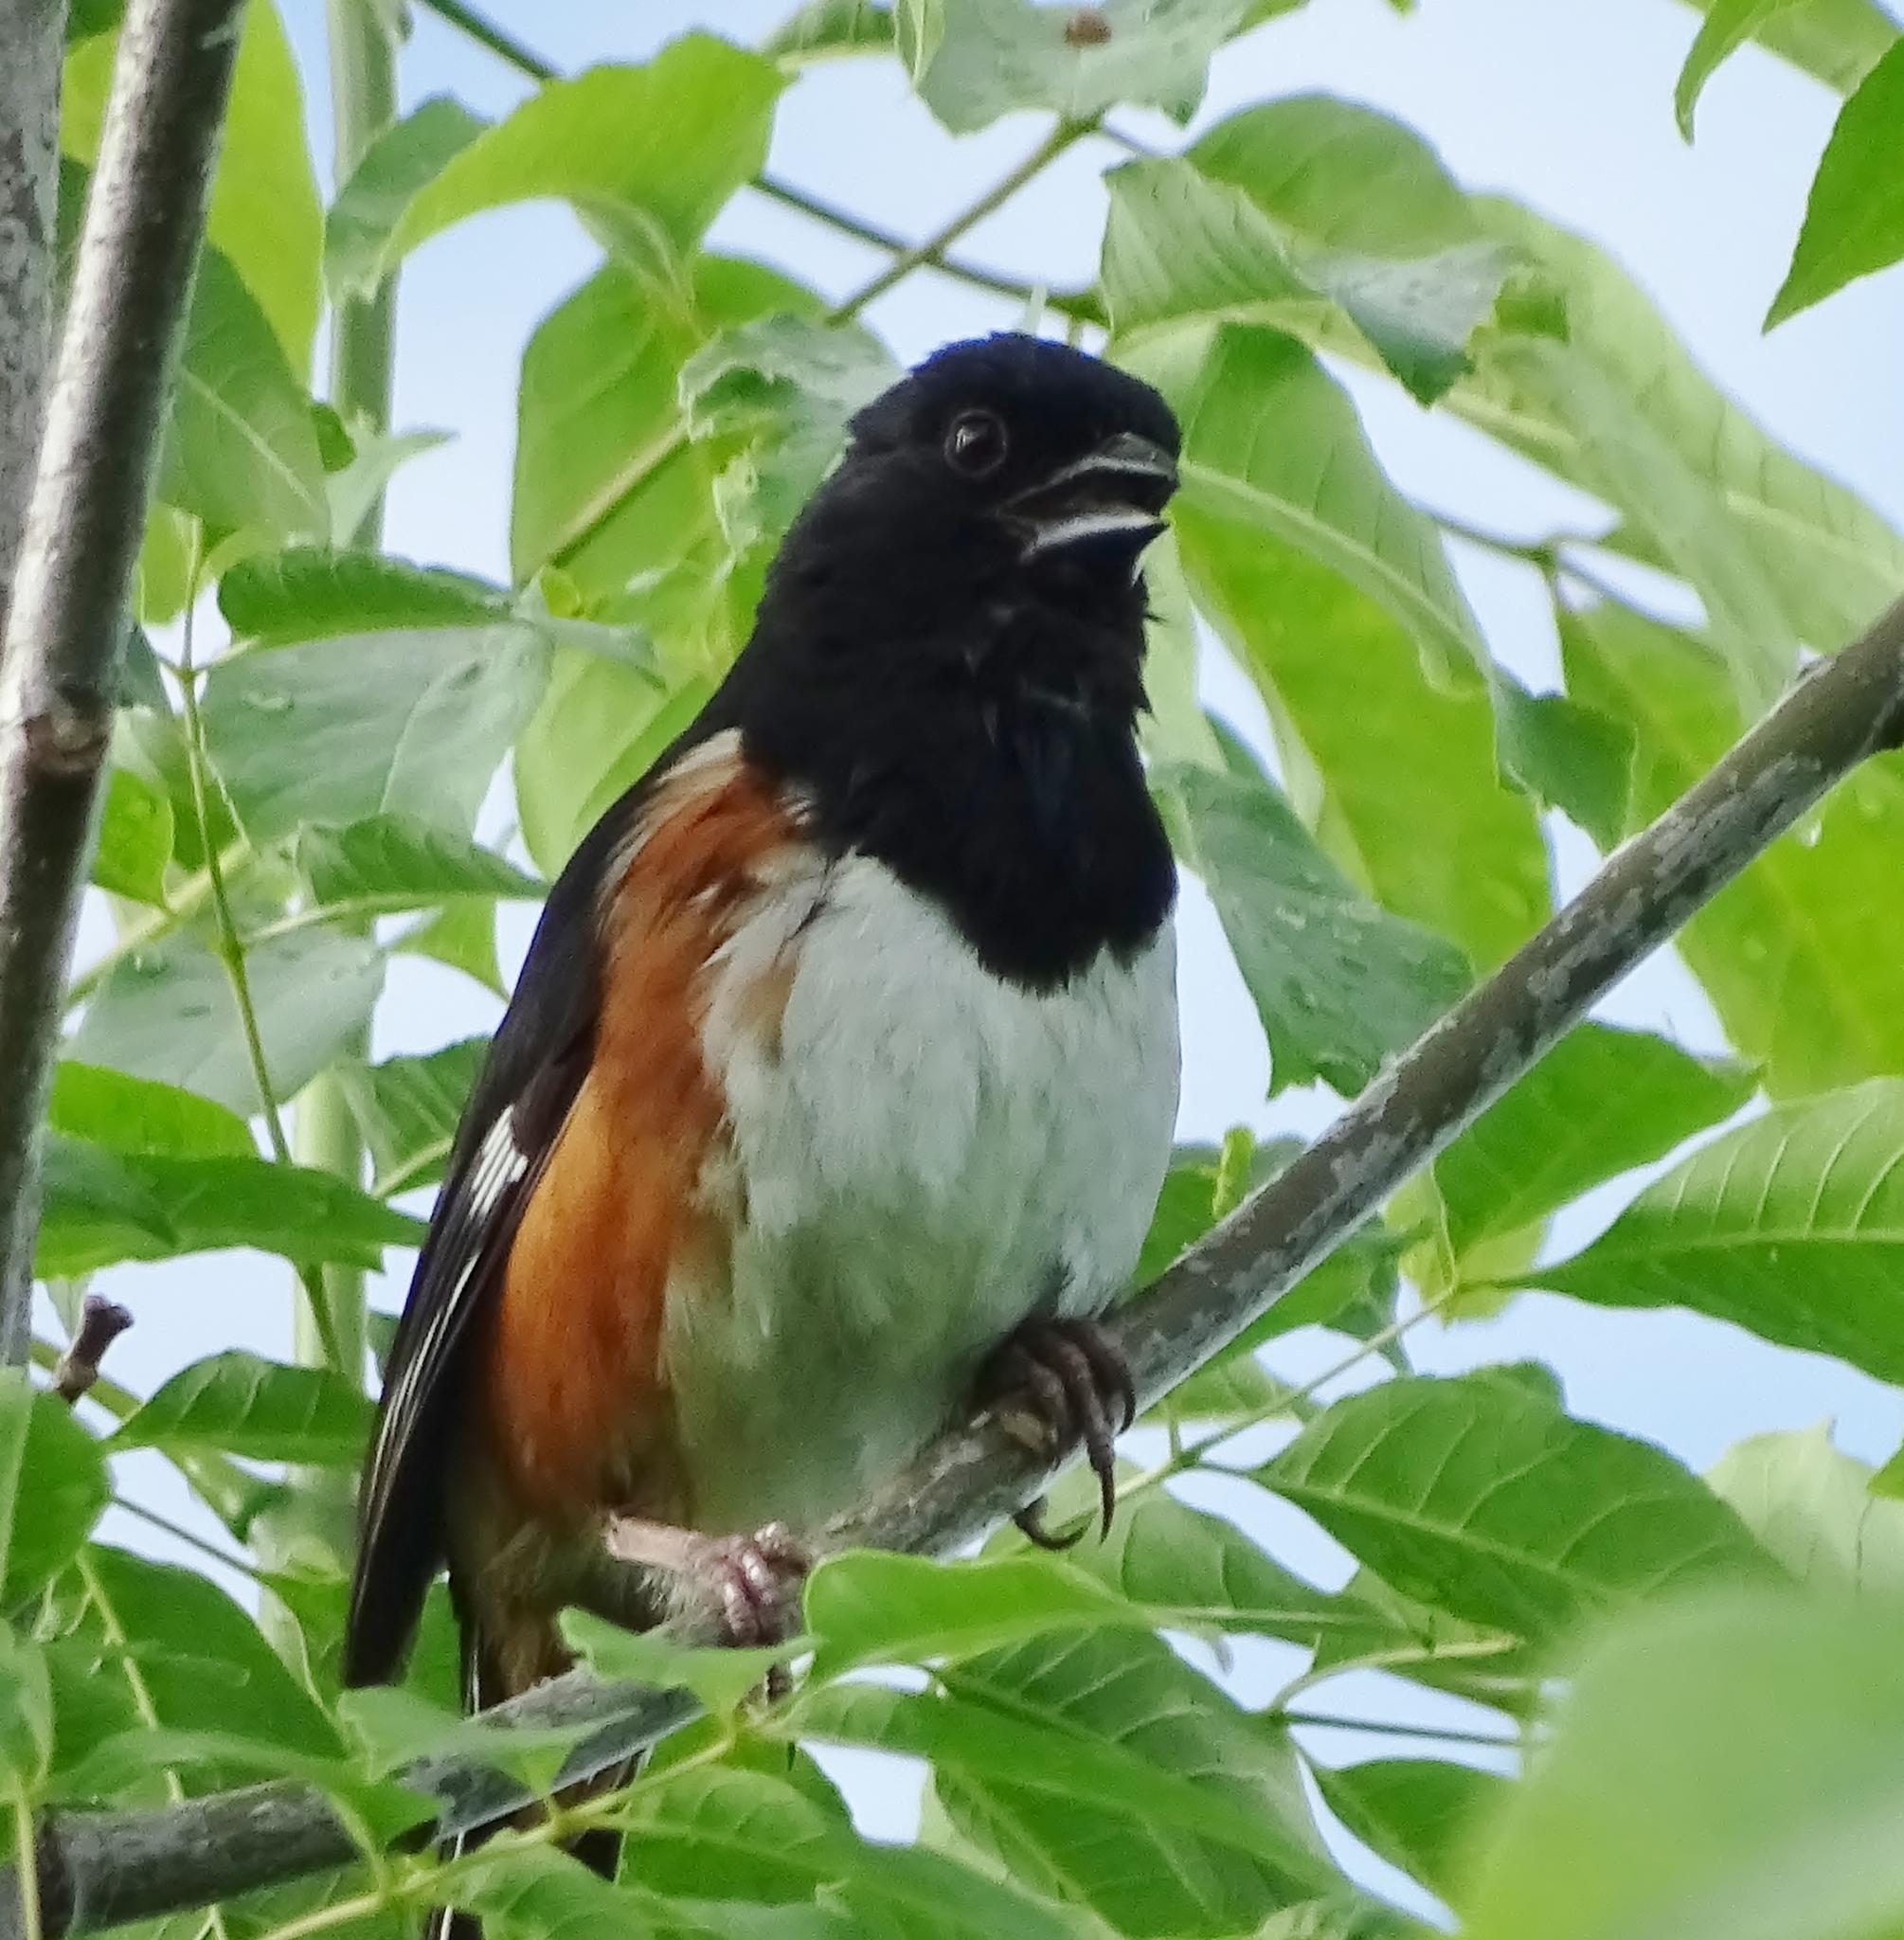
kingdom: Animalia
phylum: Chordata
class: Aves
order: Passeriformes
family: Passerellidae
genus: Pipilo
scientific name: Pipilo erythrophthalmus
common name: Eastern towhee
